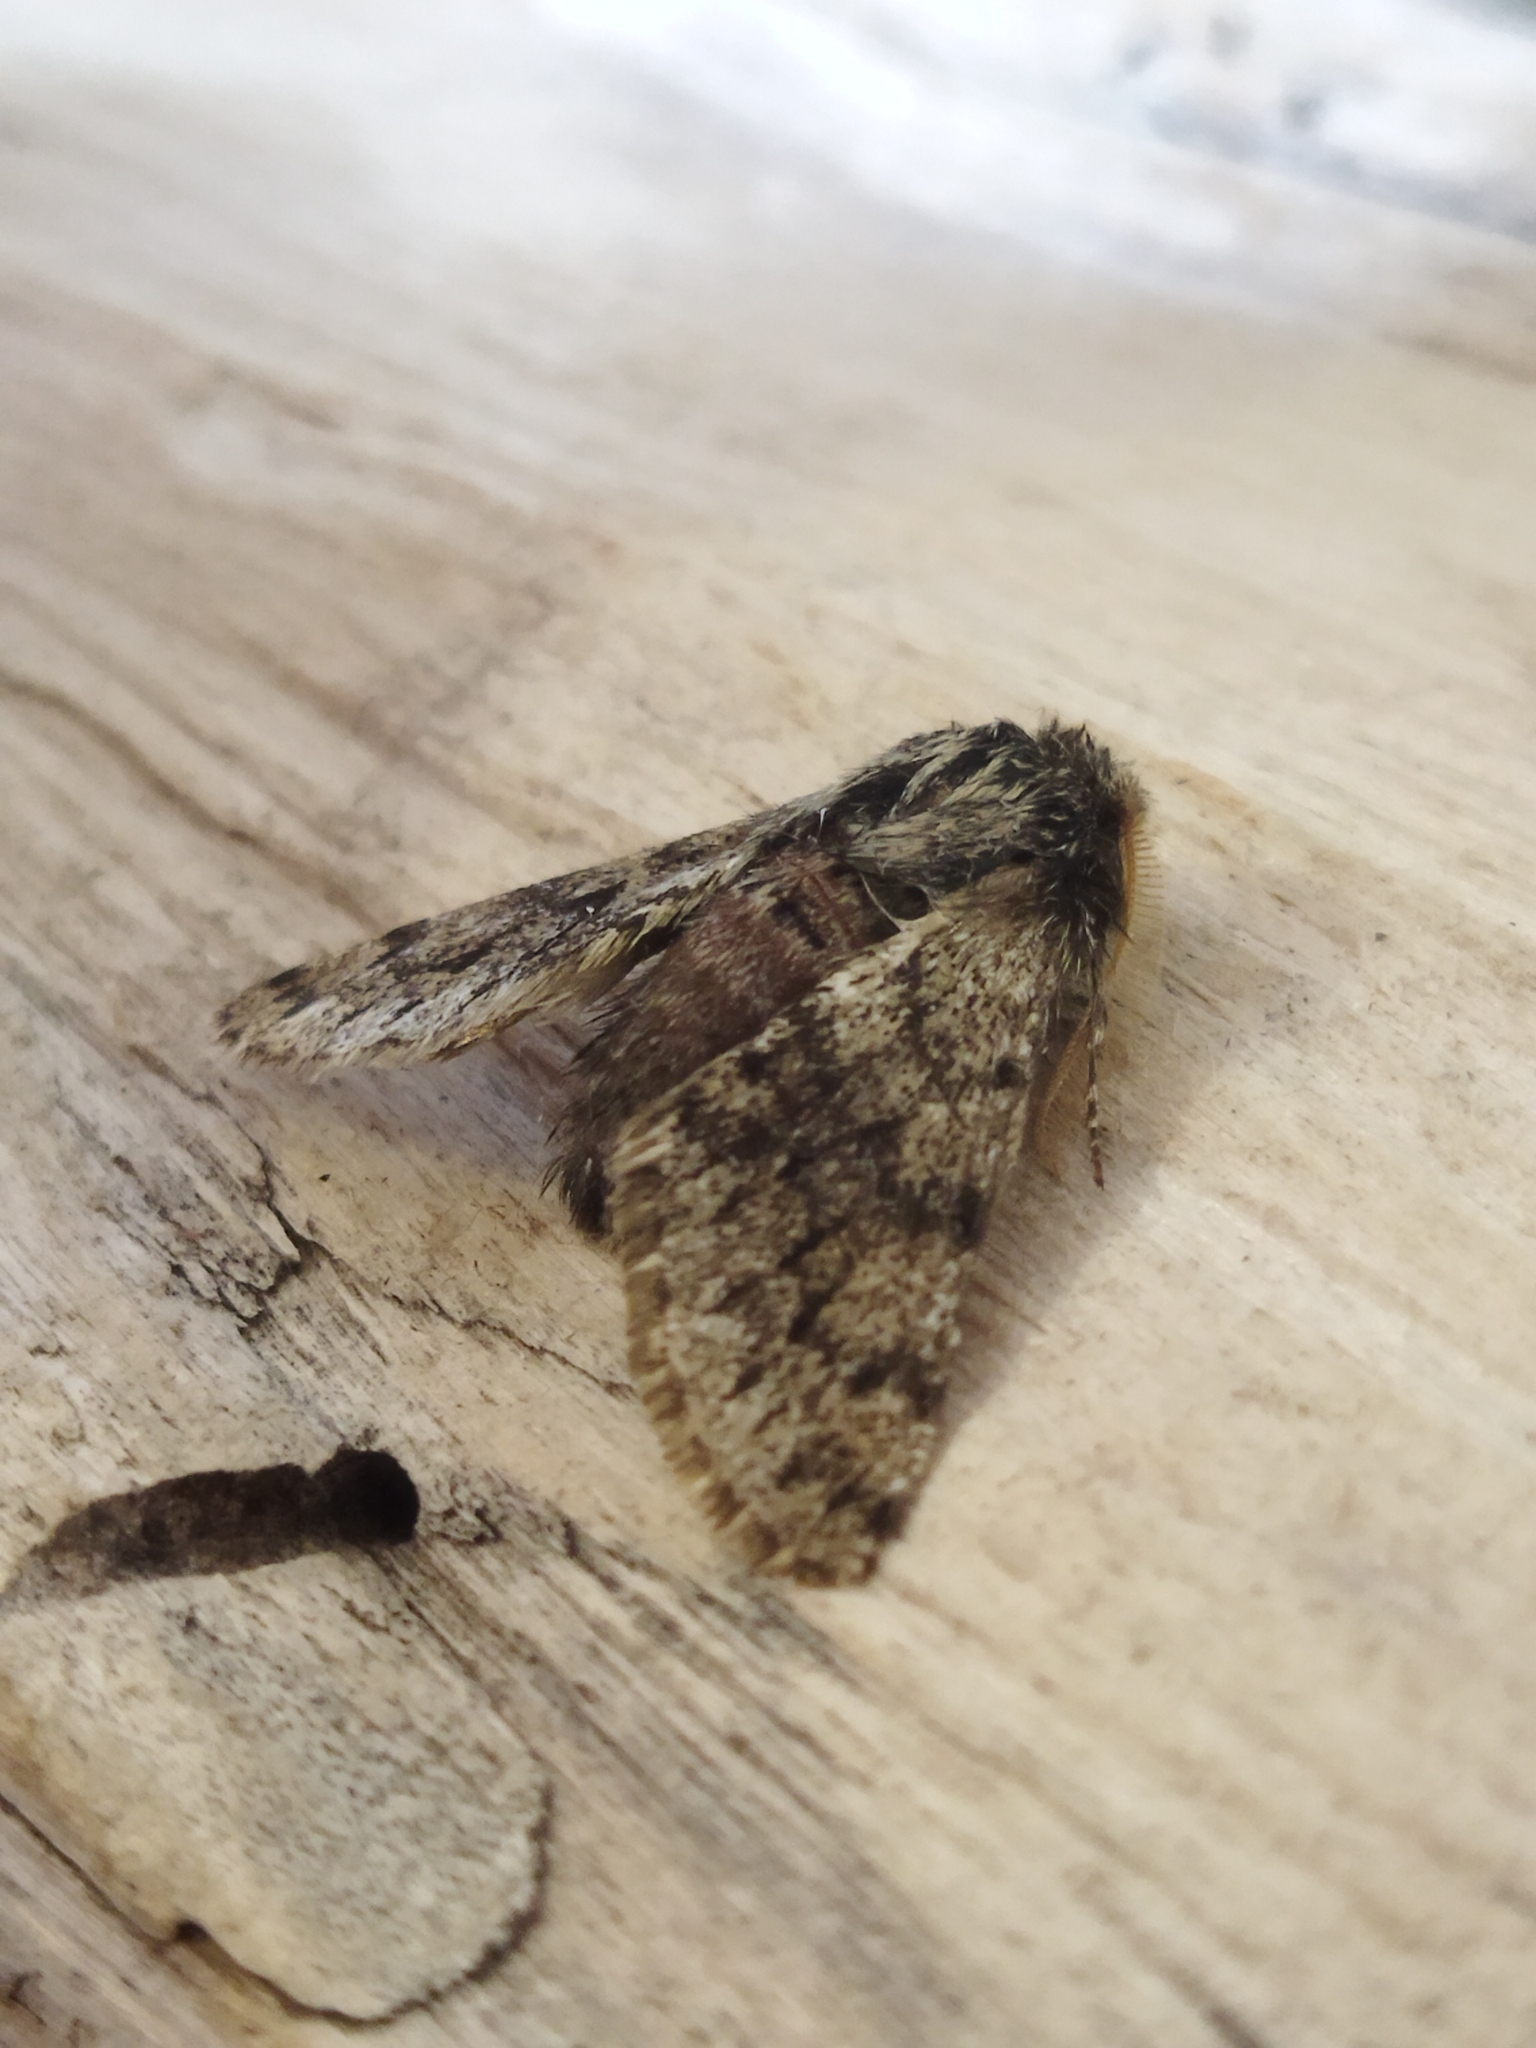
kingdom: Animalia
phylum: Arthropoda
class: Insecta
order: Lepidoptera
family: Geometridae
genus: Apocheima
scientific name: Apocheima hispidaria
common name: Small brindled beauty
